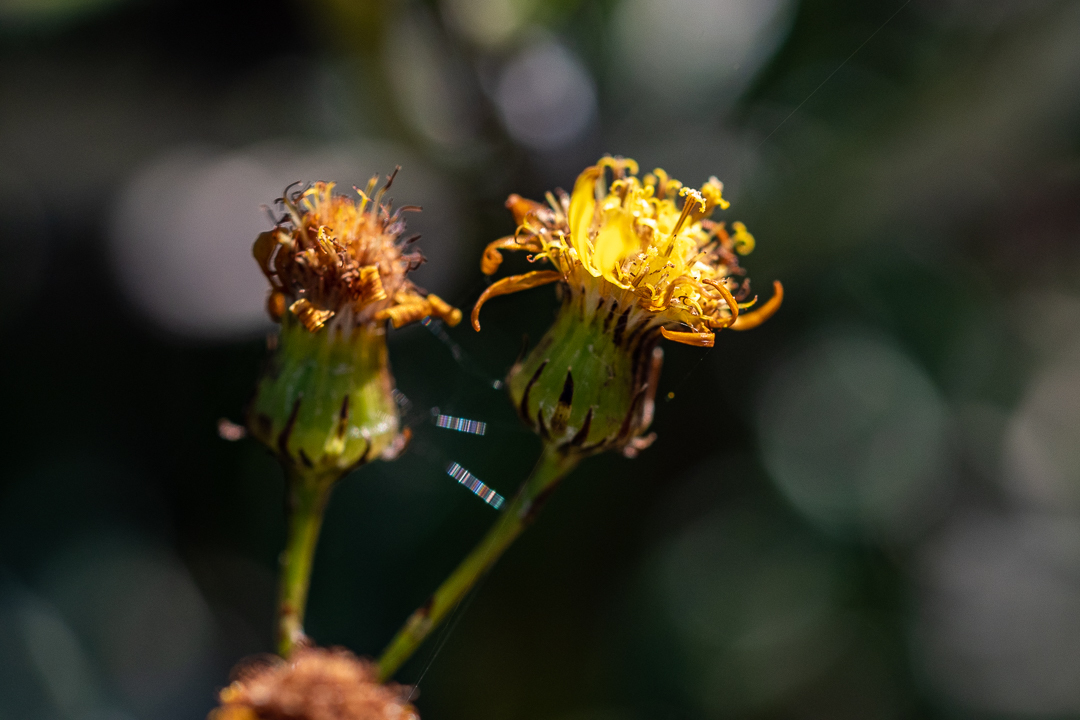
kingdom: Plantae
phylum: Tracheophyta
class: Magnoliopsida
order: Asterales
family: Asteraceae
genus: Senecio
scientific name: Senecio pterophorus
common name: Shoddy ragwort
